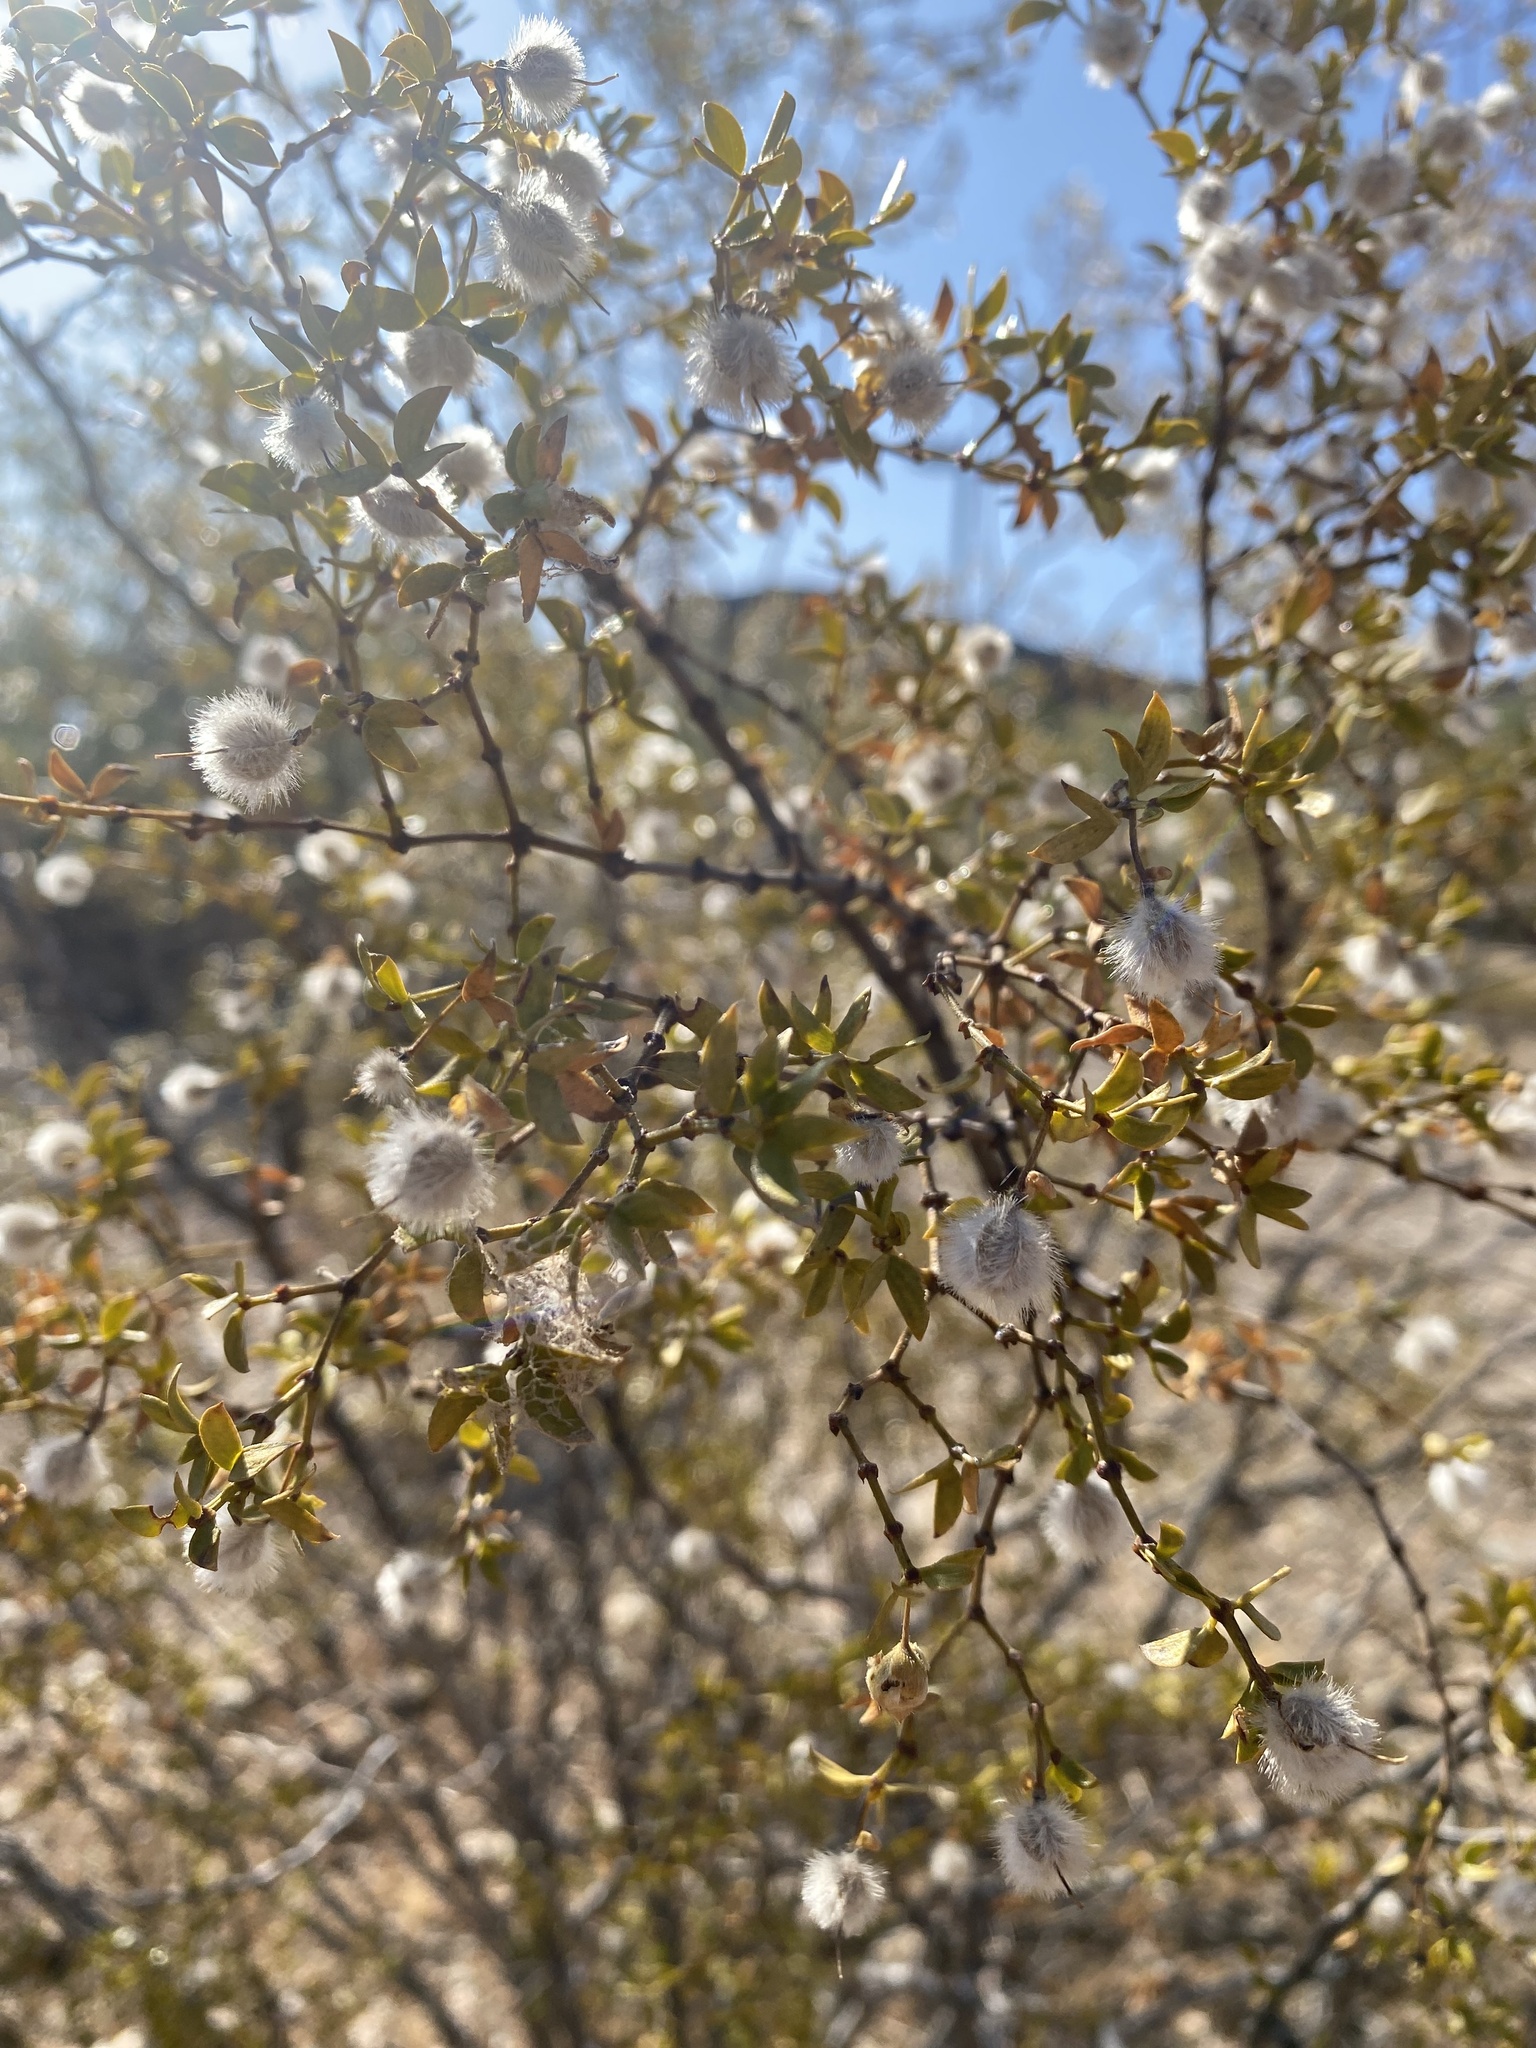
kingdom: Plantae
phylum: Tracheophyta
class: Magnoliopsida
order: Zygophyllales
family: Zygophyllaceae
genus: Larrea
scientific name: Larrea tridentata
